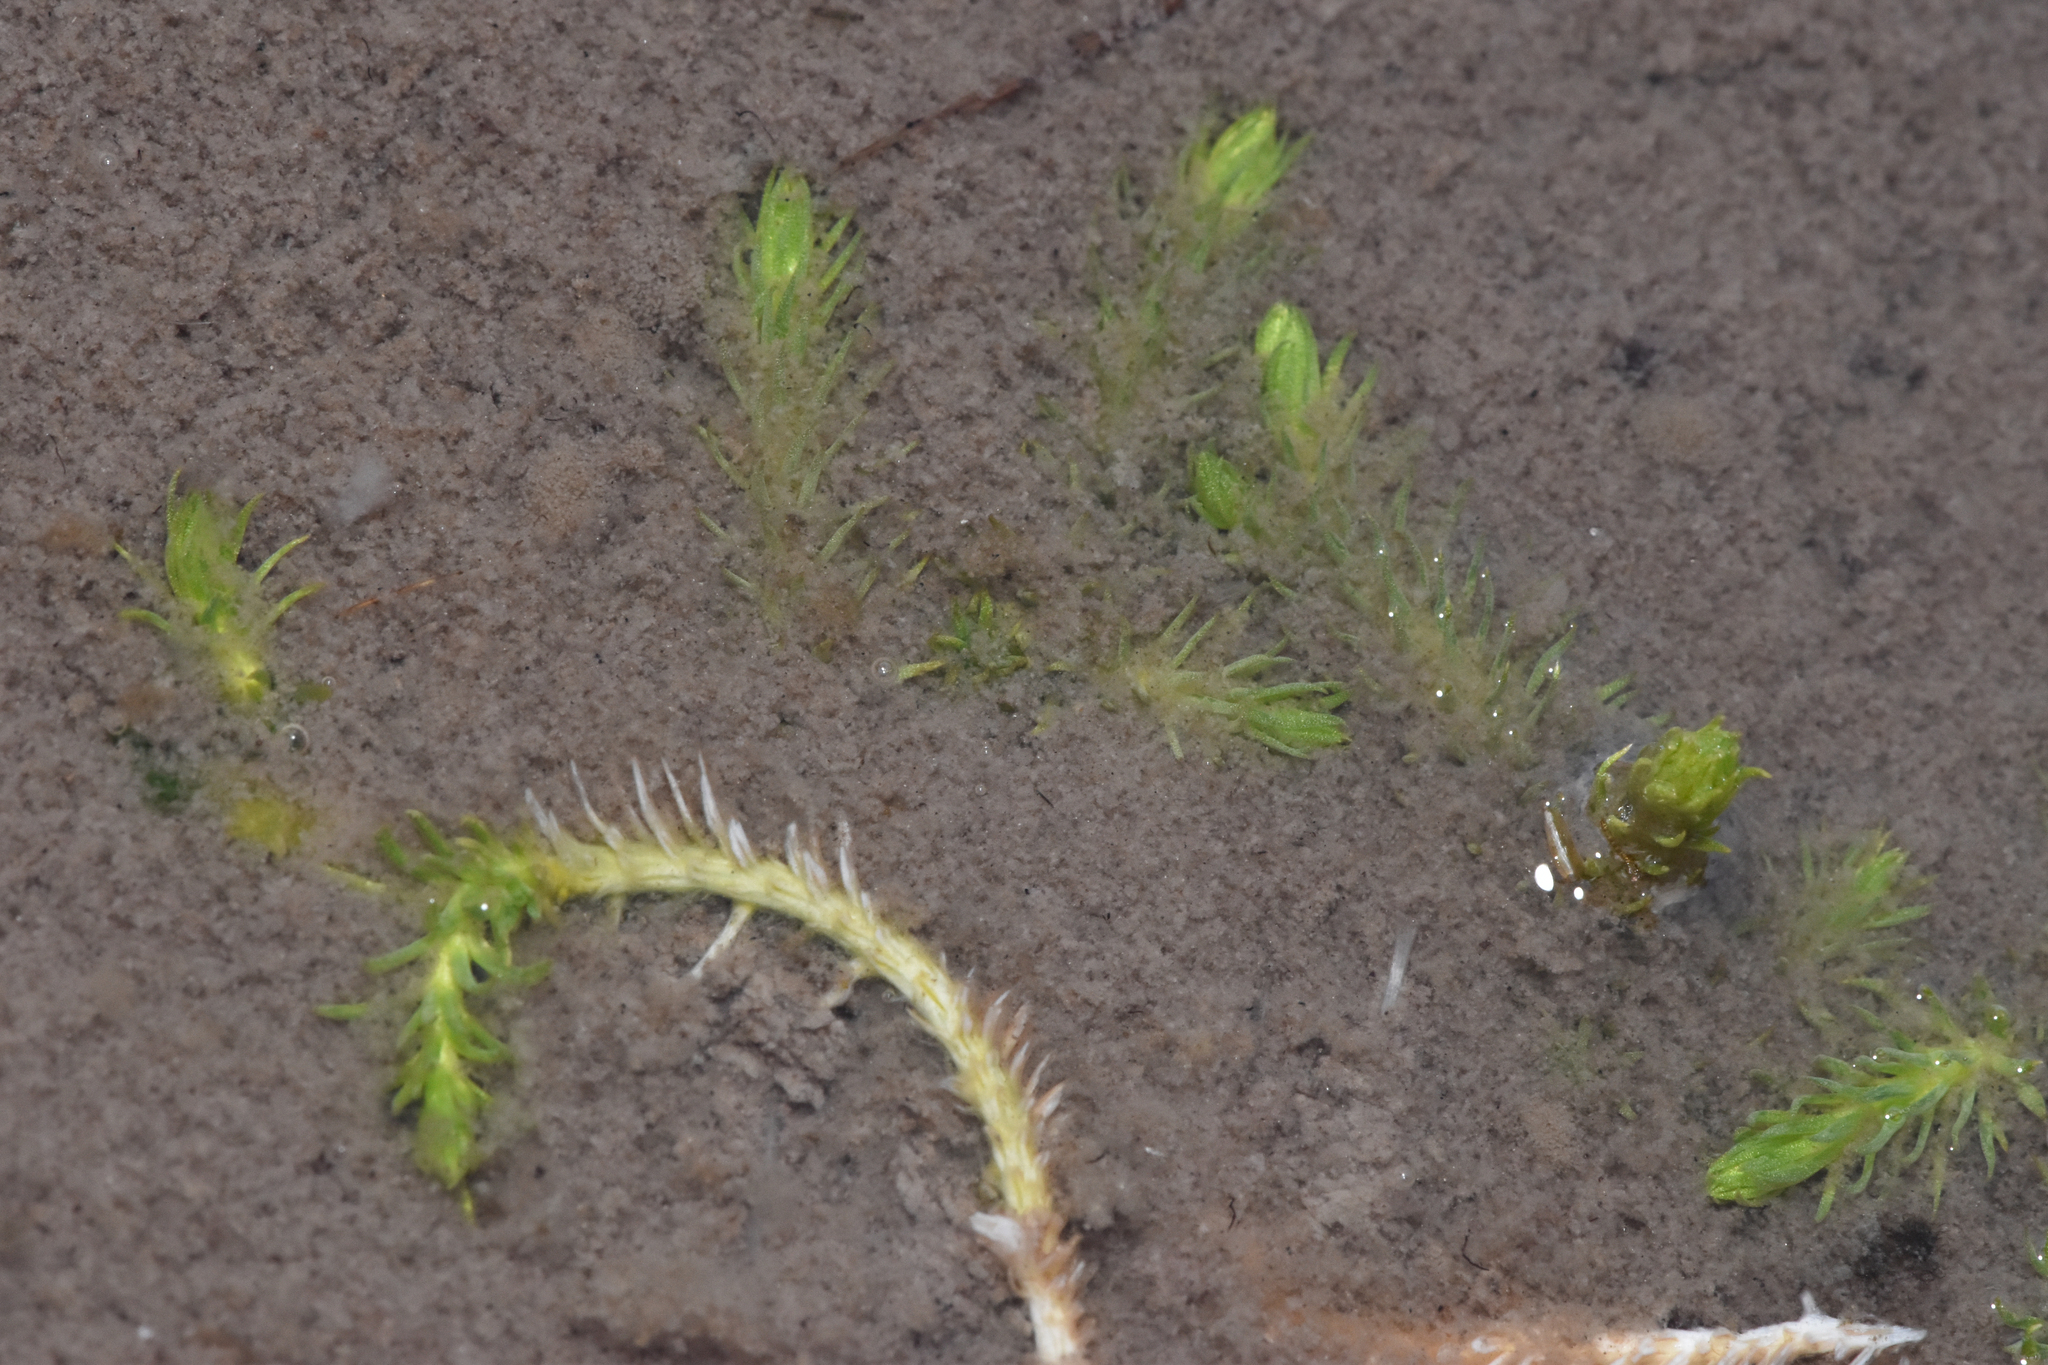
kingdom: Plantae
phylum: Tracheophyta
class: Lycopodiopsida
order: Lycopodiales
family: Lycopodiaceae
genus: Lycopodiella
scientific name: Lycopodiella inundata
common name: Marsh clubmoss
